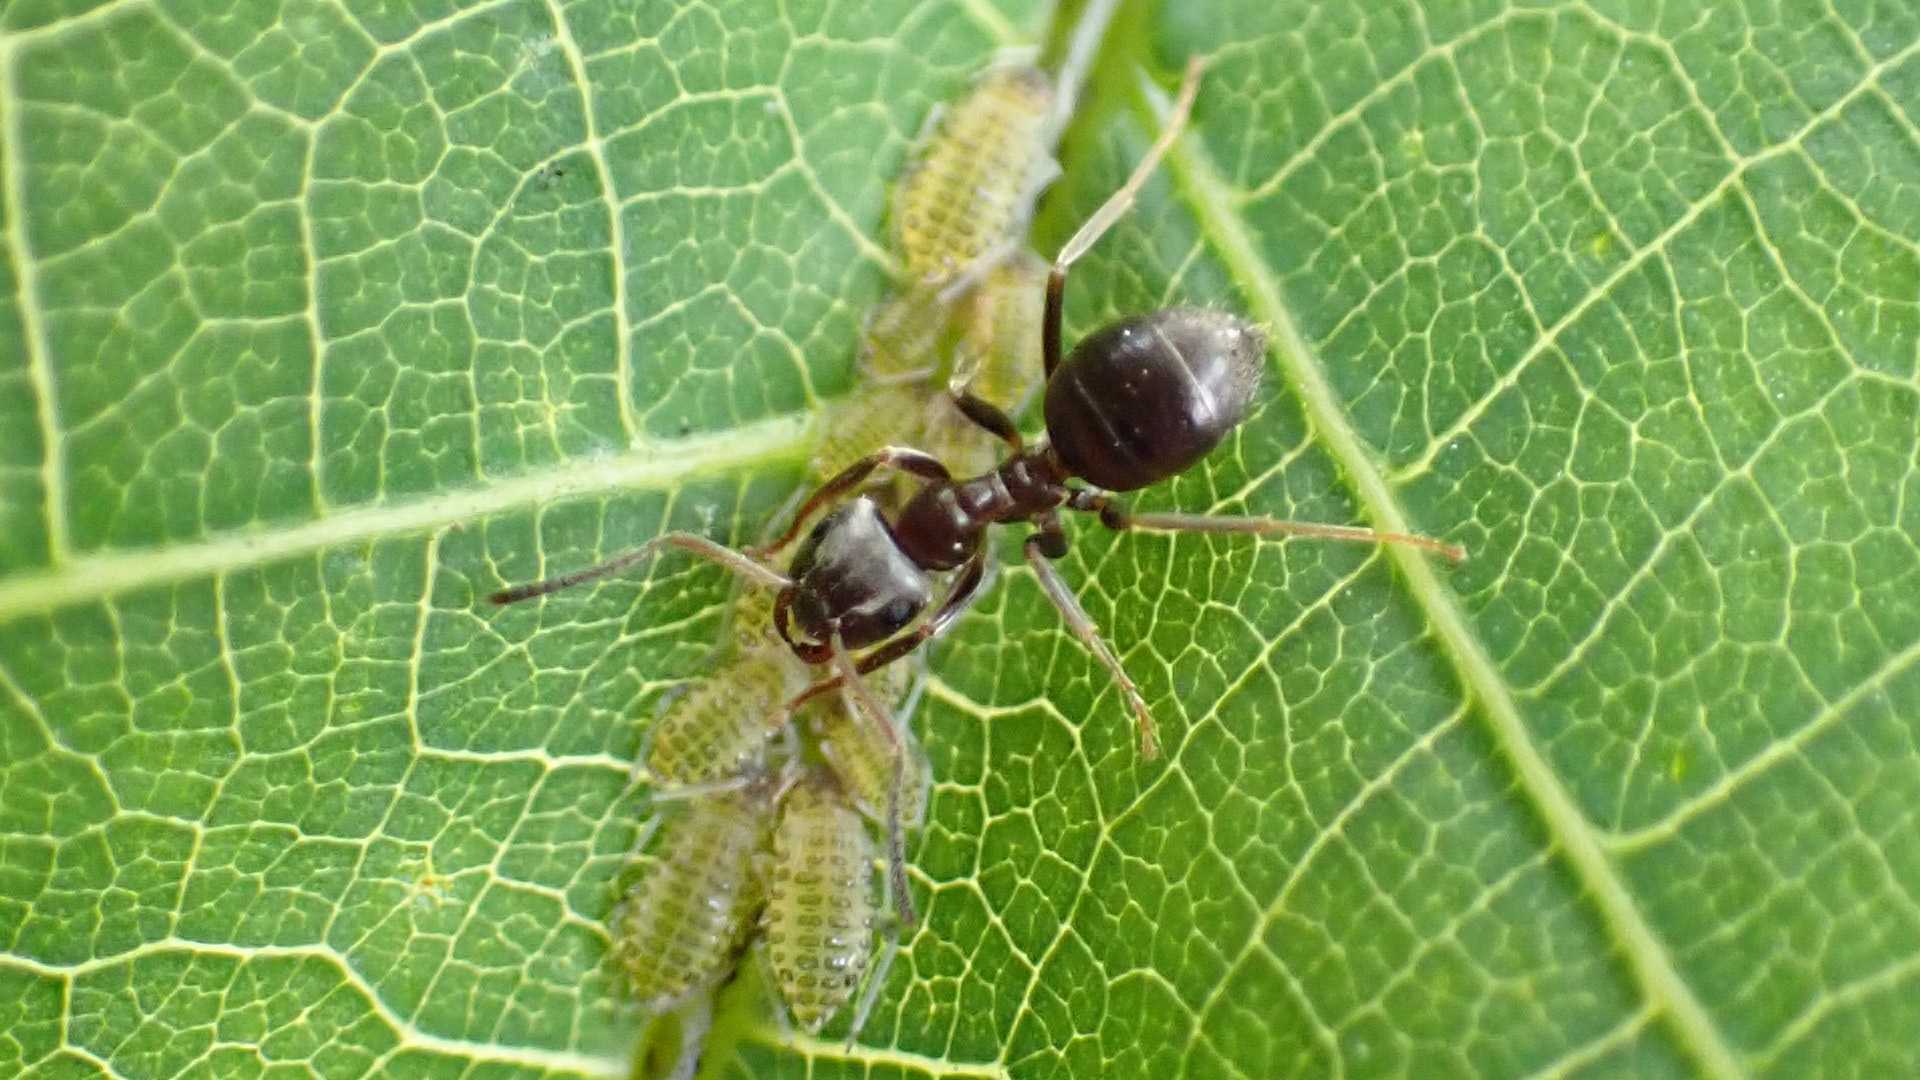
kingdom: Animalia
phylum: Arthropoda
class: Insecta
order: Hymenoptera
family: Formicidae
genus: Lasius
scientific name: Lasius
